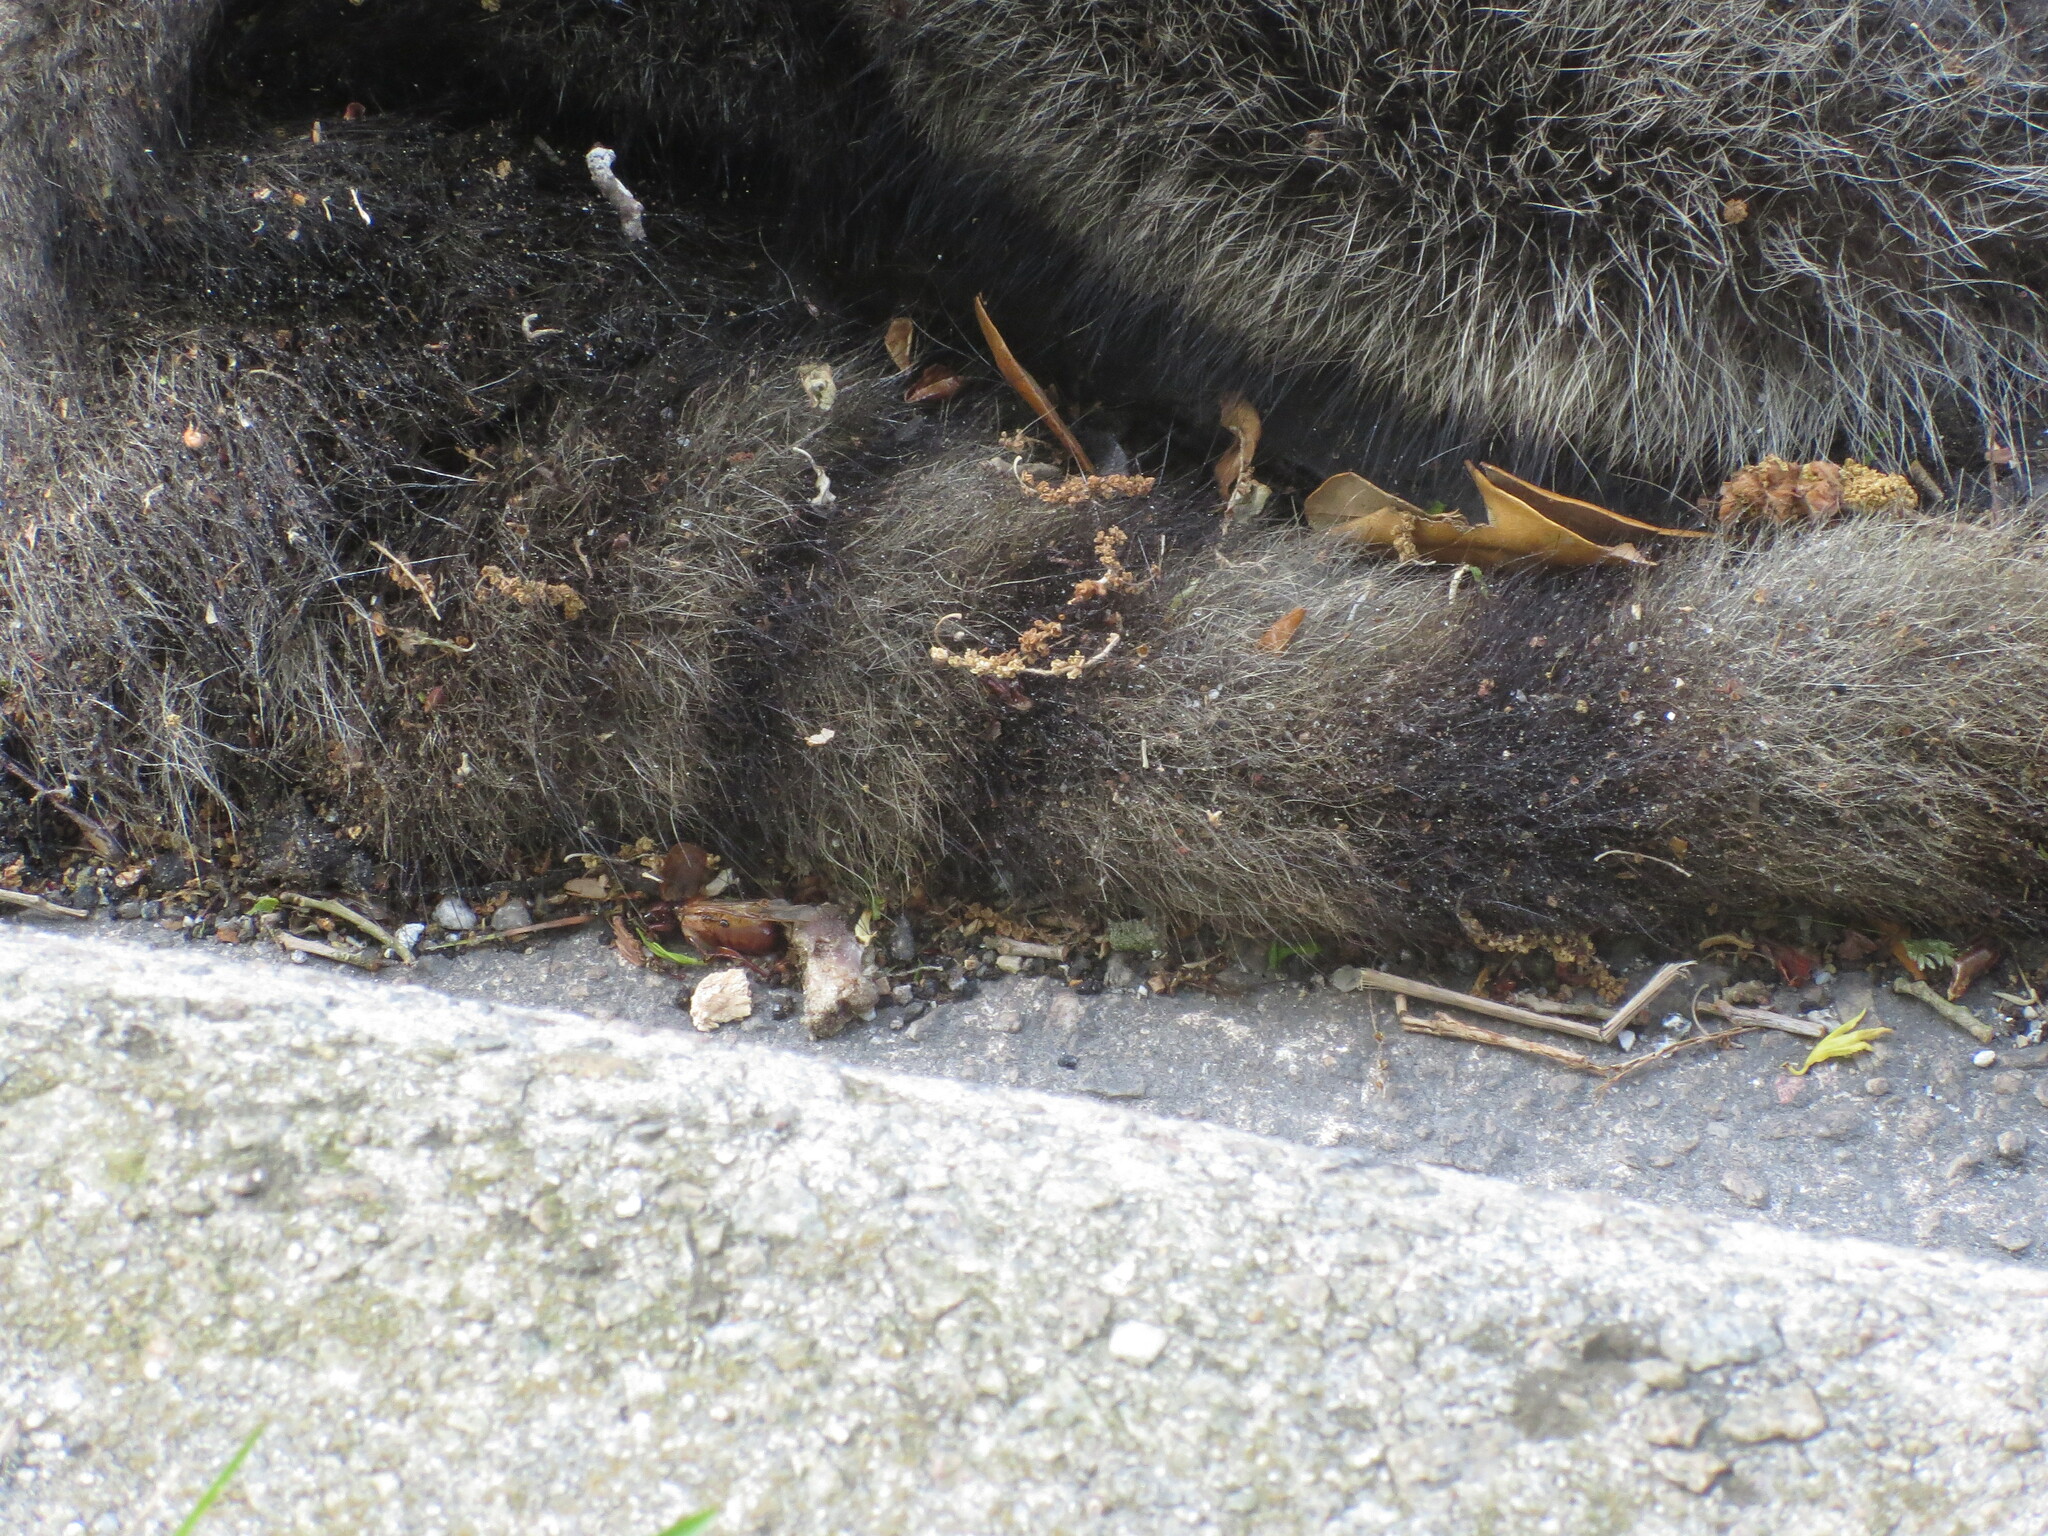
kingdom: Animalia
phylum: Chordata
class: Mammalia
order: Carnivora
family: Procyonidae
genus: Procyon
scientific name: Procyon lotor
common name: Raccoon
